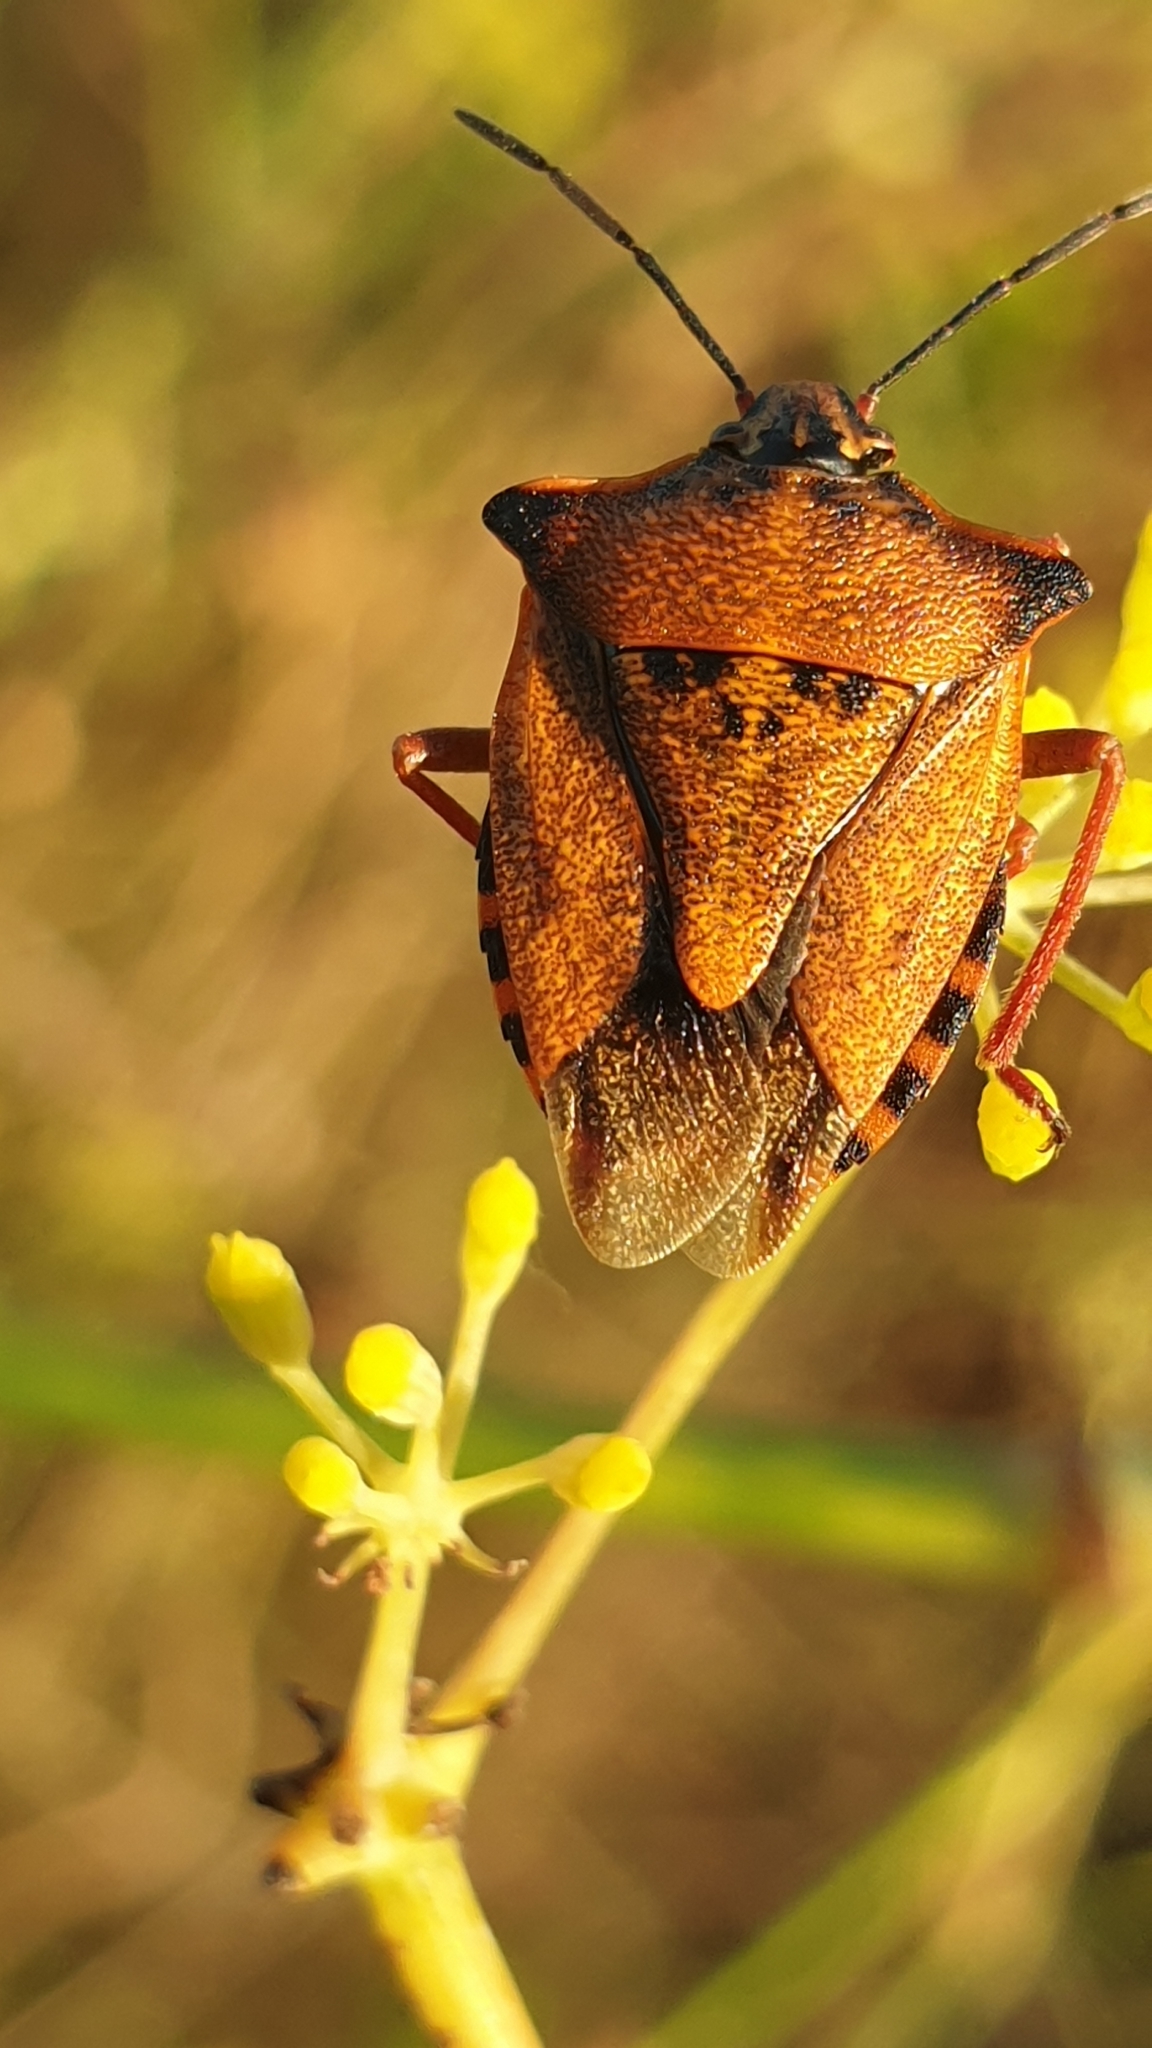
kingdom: Animalia
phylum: Arthropoda
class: Insecta
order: Hemiptera
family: Pentatomidae
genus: Carpocoris
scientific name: Carpocoris mediterraneus
